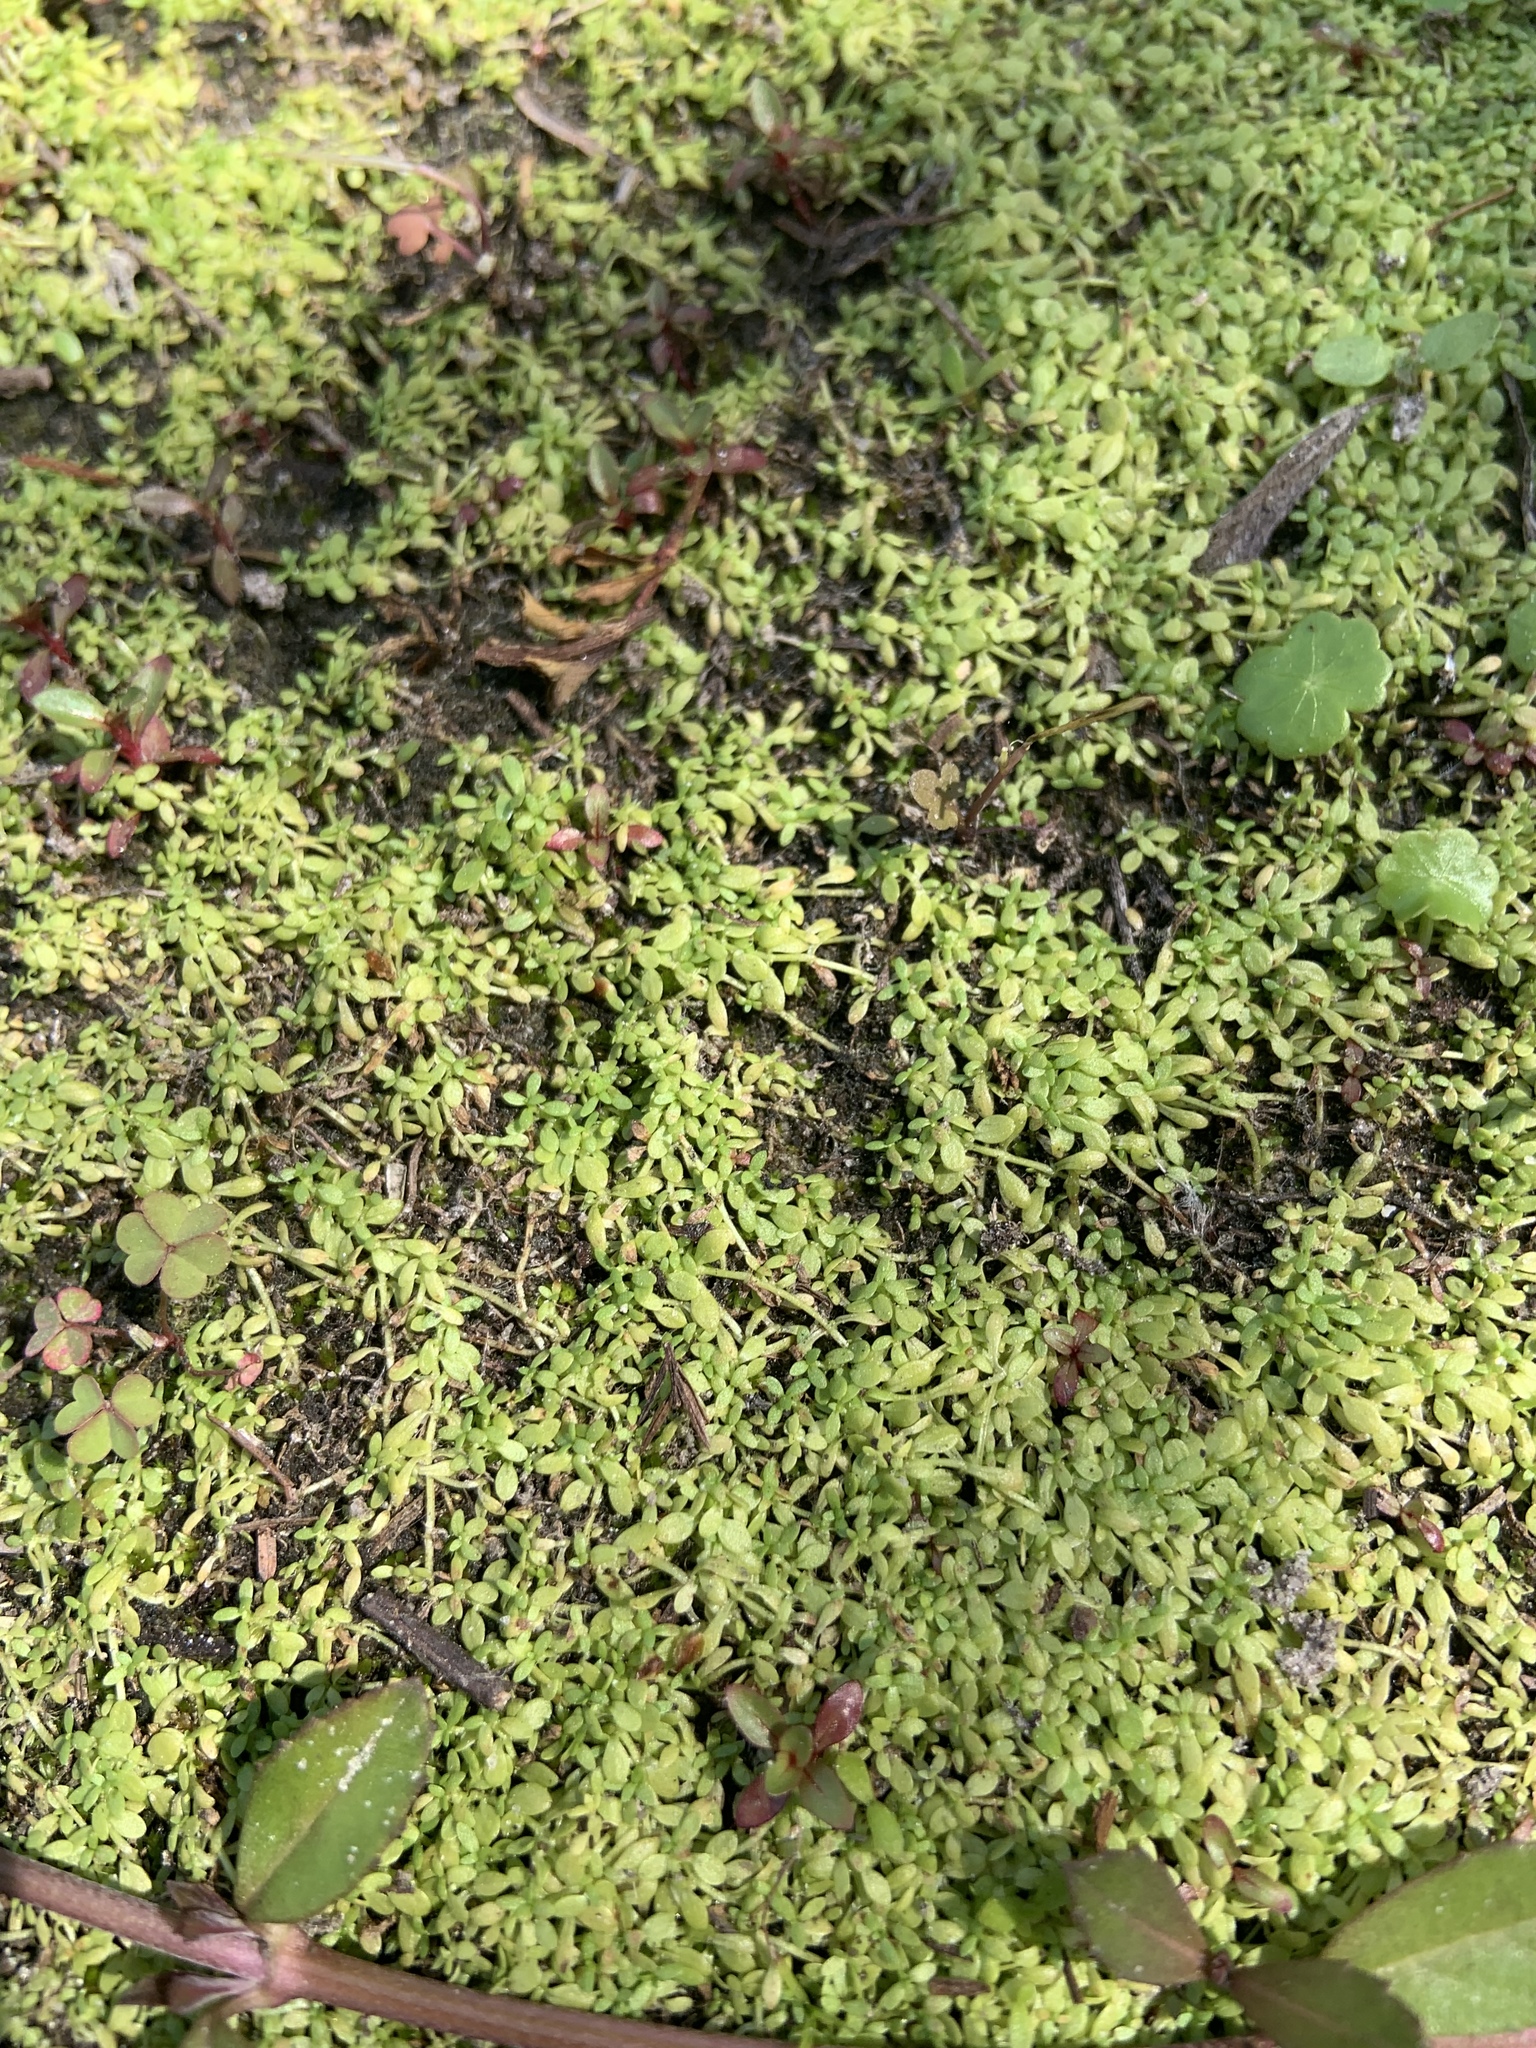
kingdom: Plantae
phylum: Tracheophyta
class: Magnoliopsida
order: Lamiales
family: Plantaginaceae
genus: Callitriche
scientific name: Callitriche heterophylla
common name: Two-headed water-starwort
